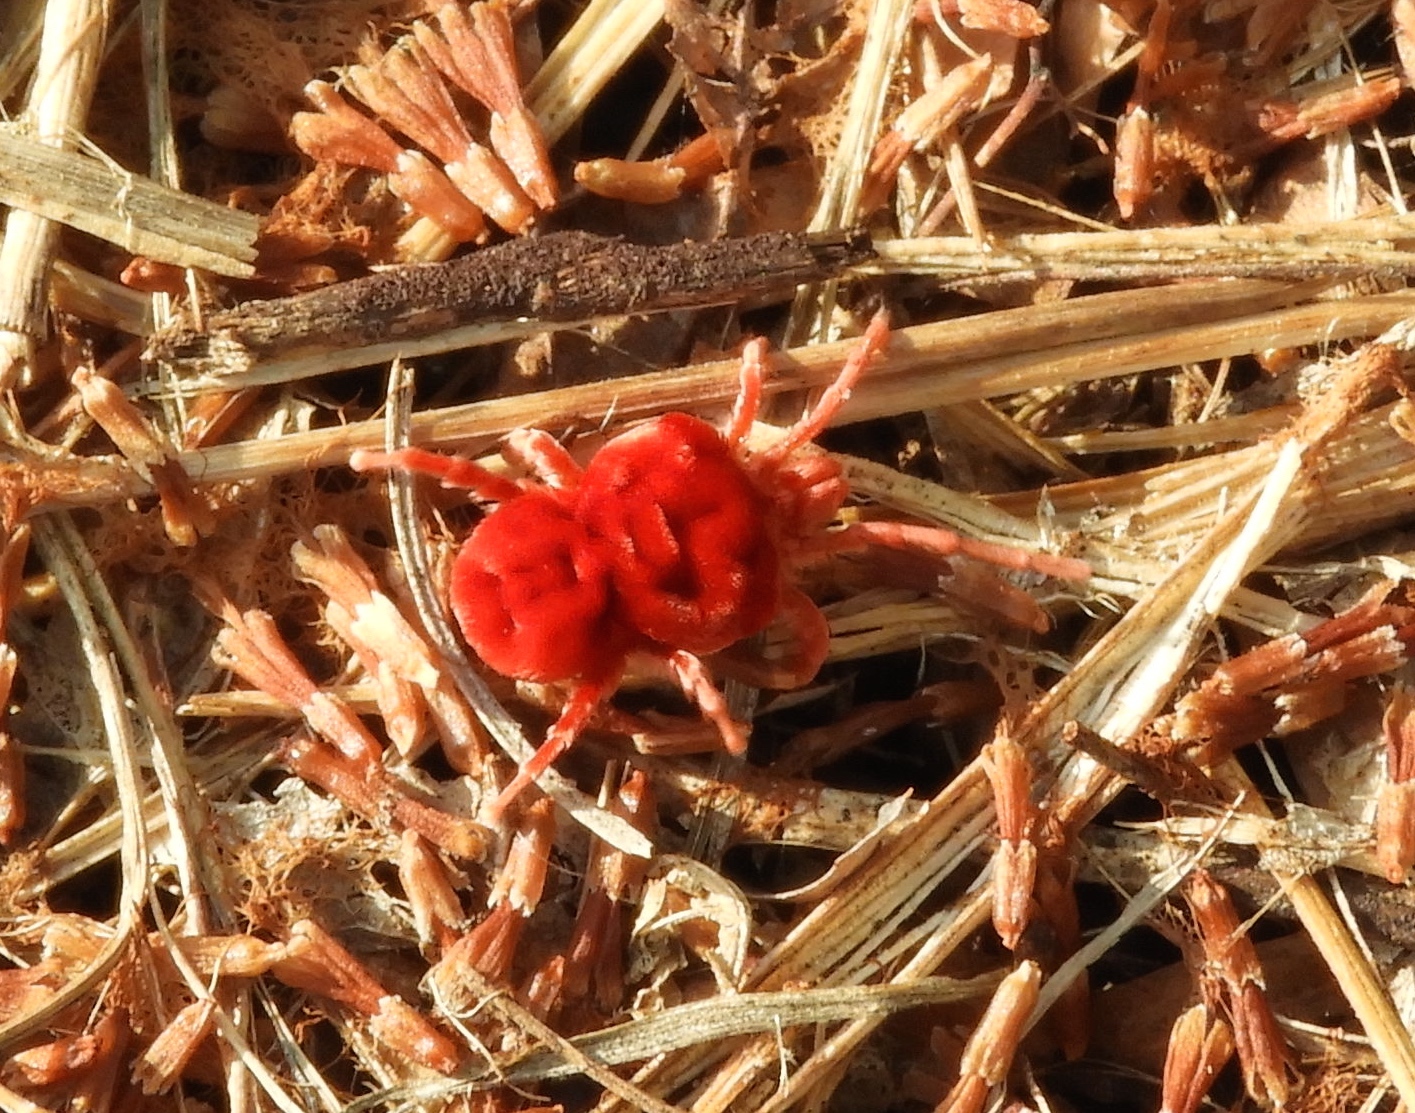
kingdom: Animalia
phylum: Arthropoda
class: Arachnida
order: Trombidiformes
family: Leeuwenhoekiidae
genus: Dinothrombium
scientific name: Dinothrombium
